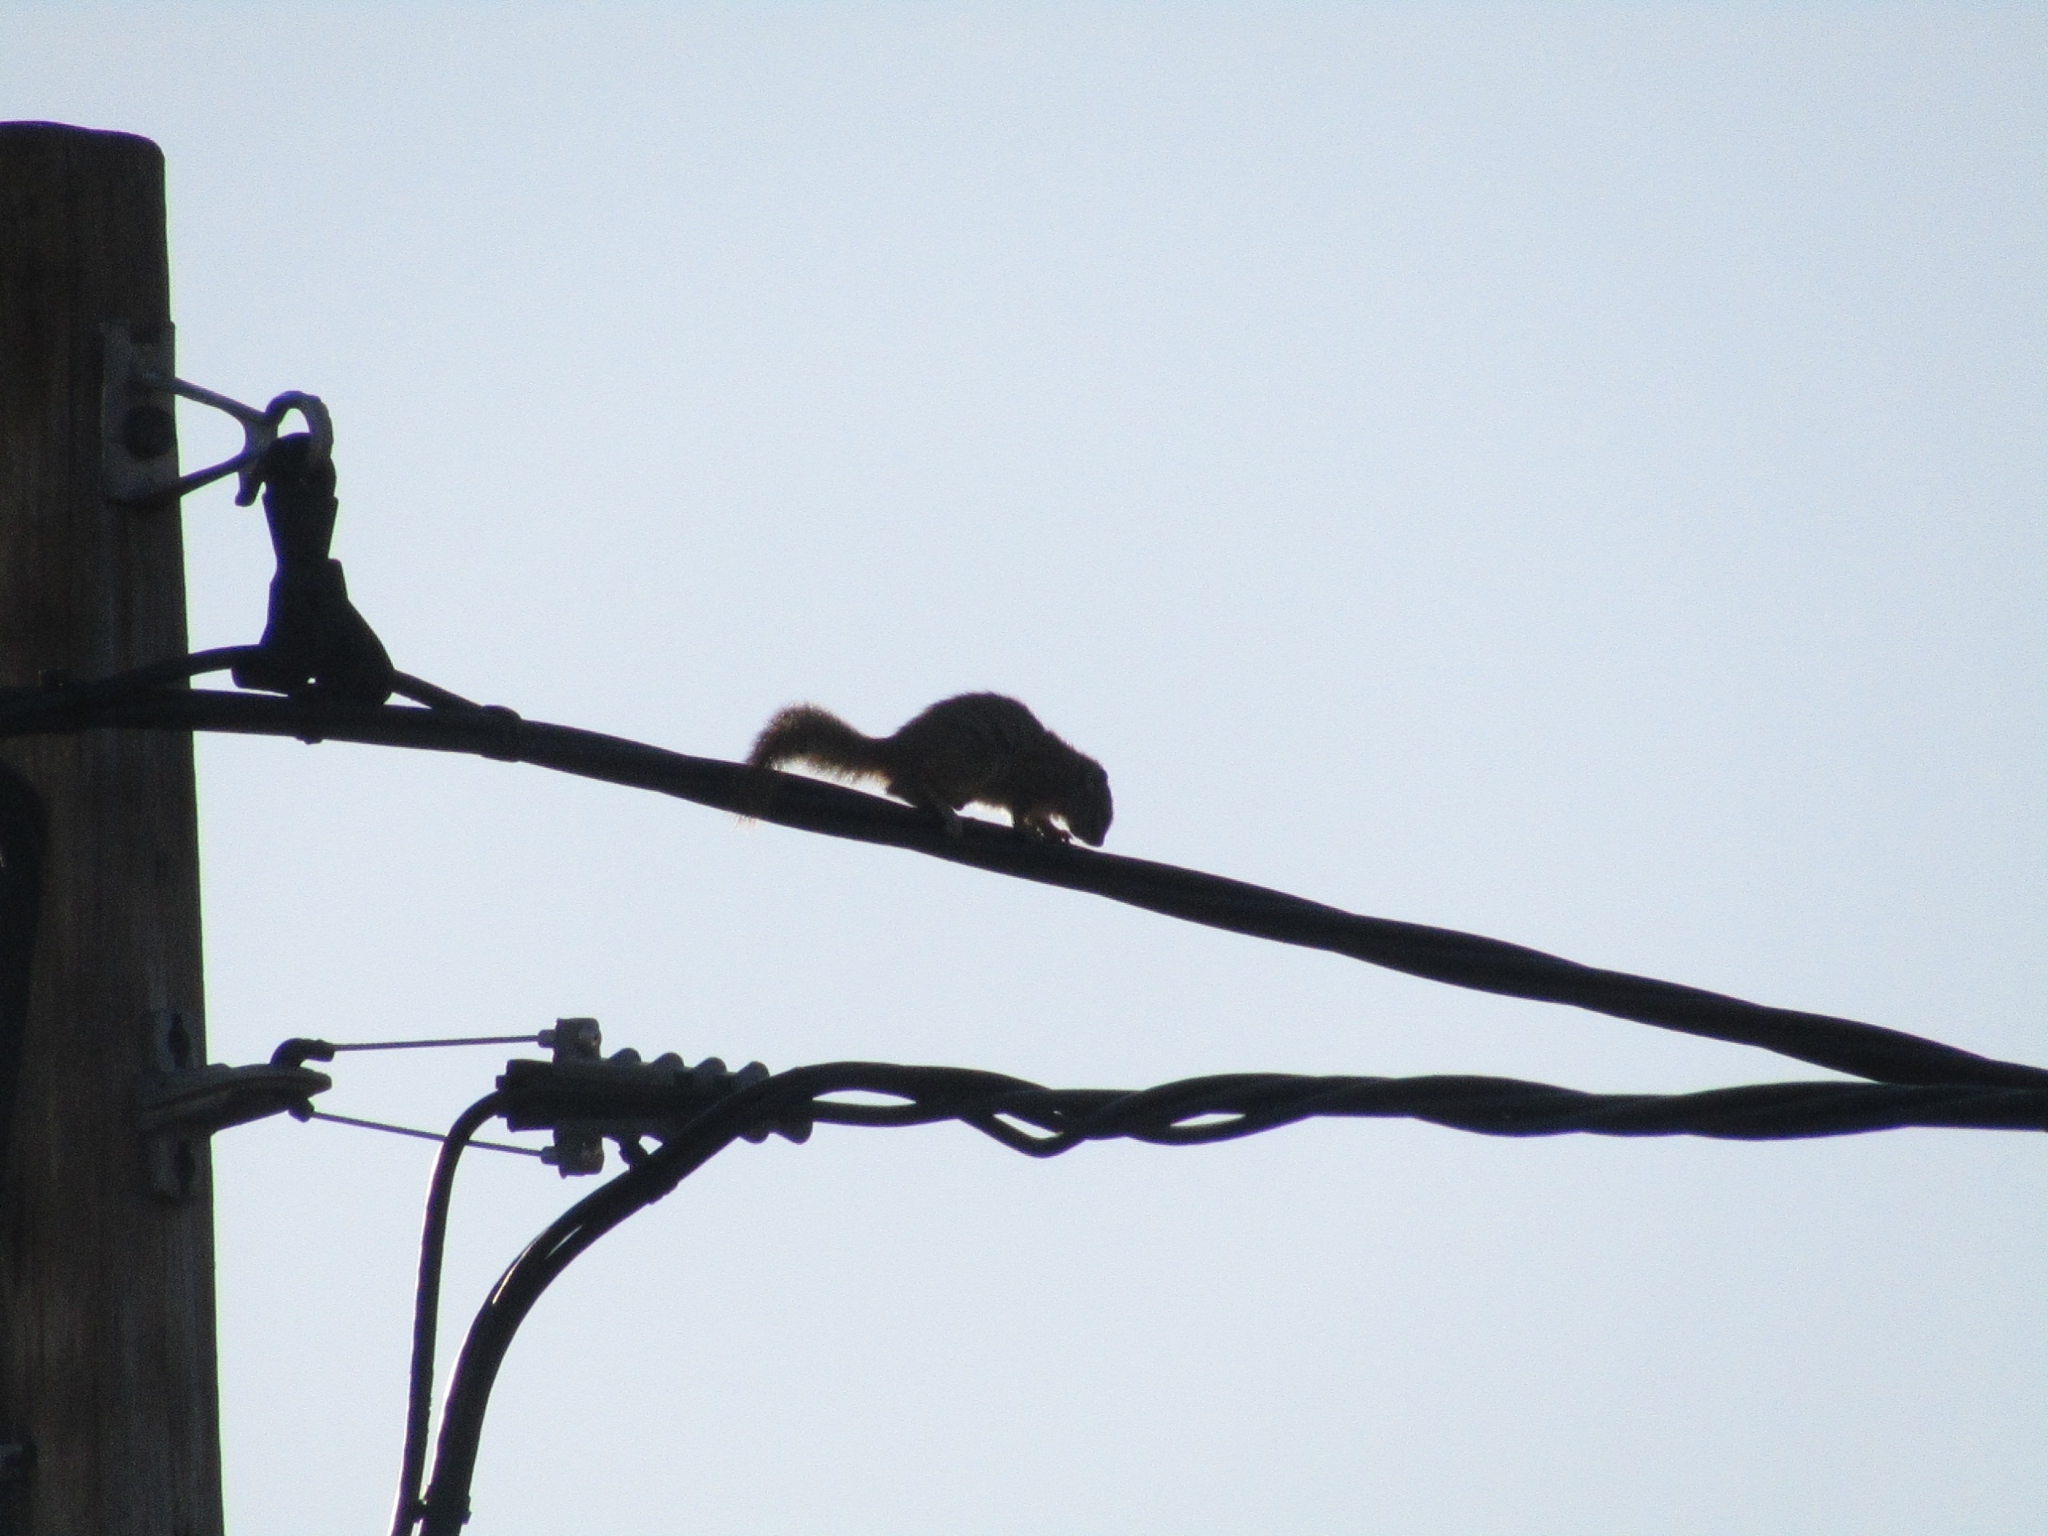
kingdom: Animalia
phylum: Chordata
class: Mammalia
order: Rodentia
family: Sciuridae
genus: Paraxerus
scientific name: Paraxerus cepapi
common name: Smith's bush squirrel
